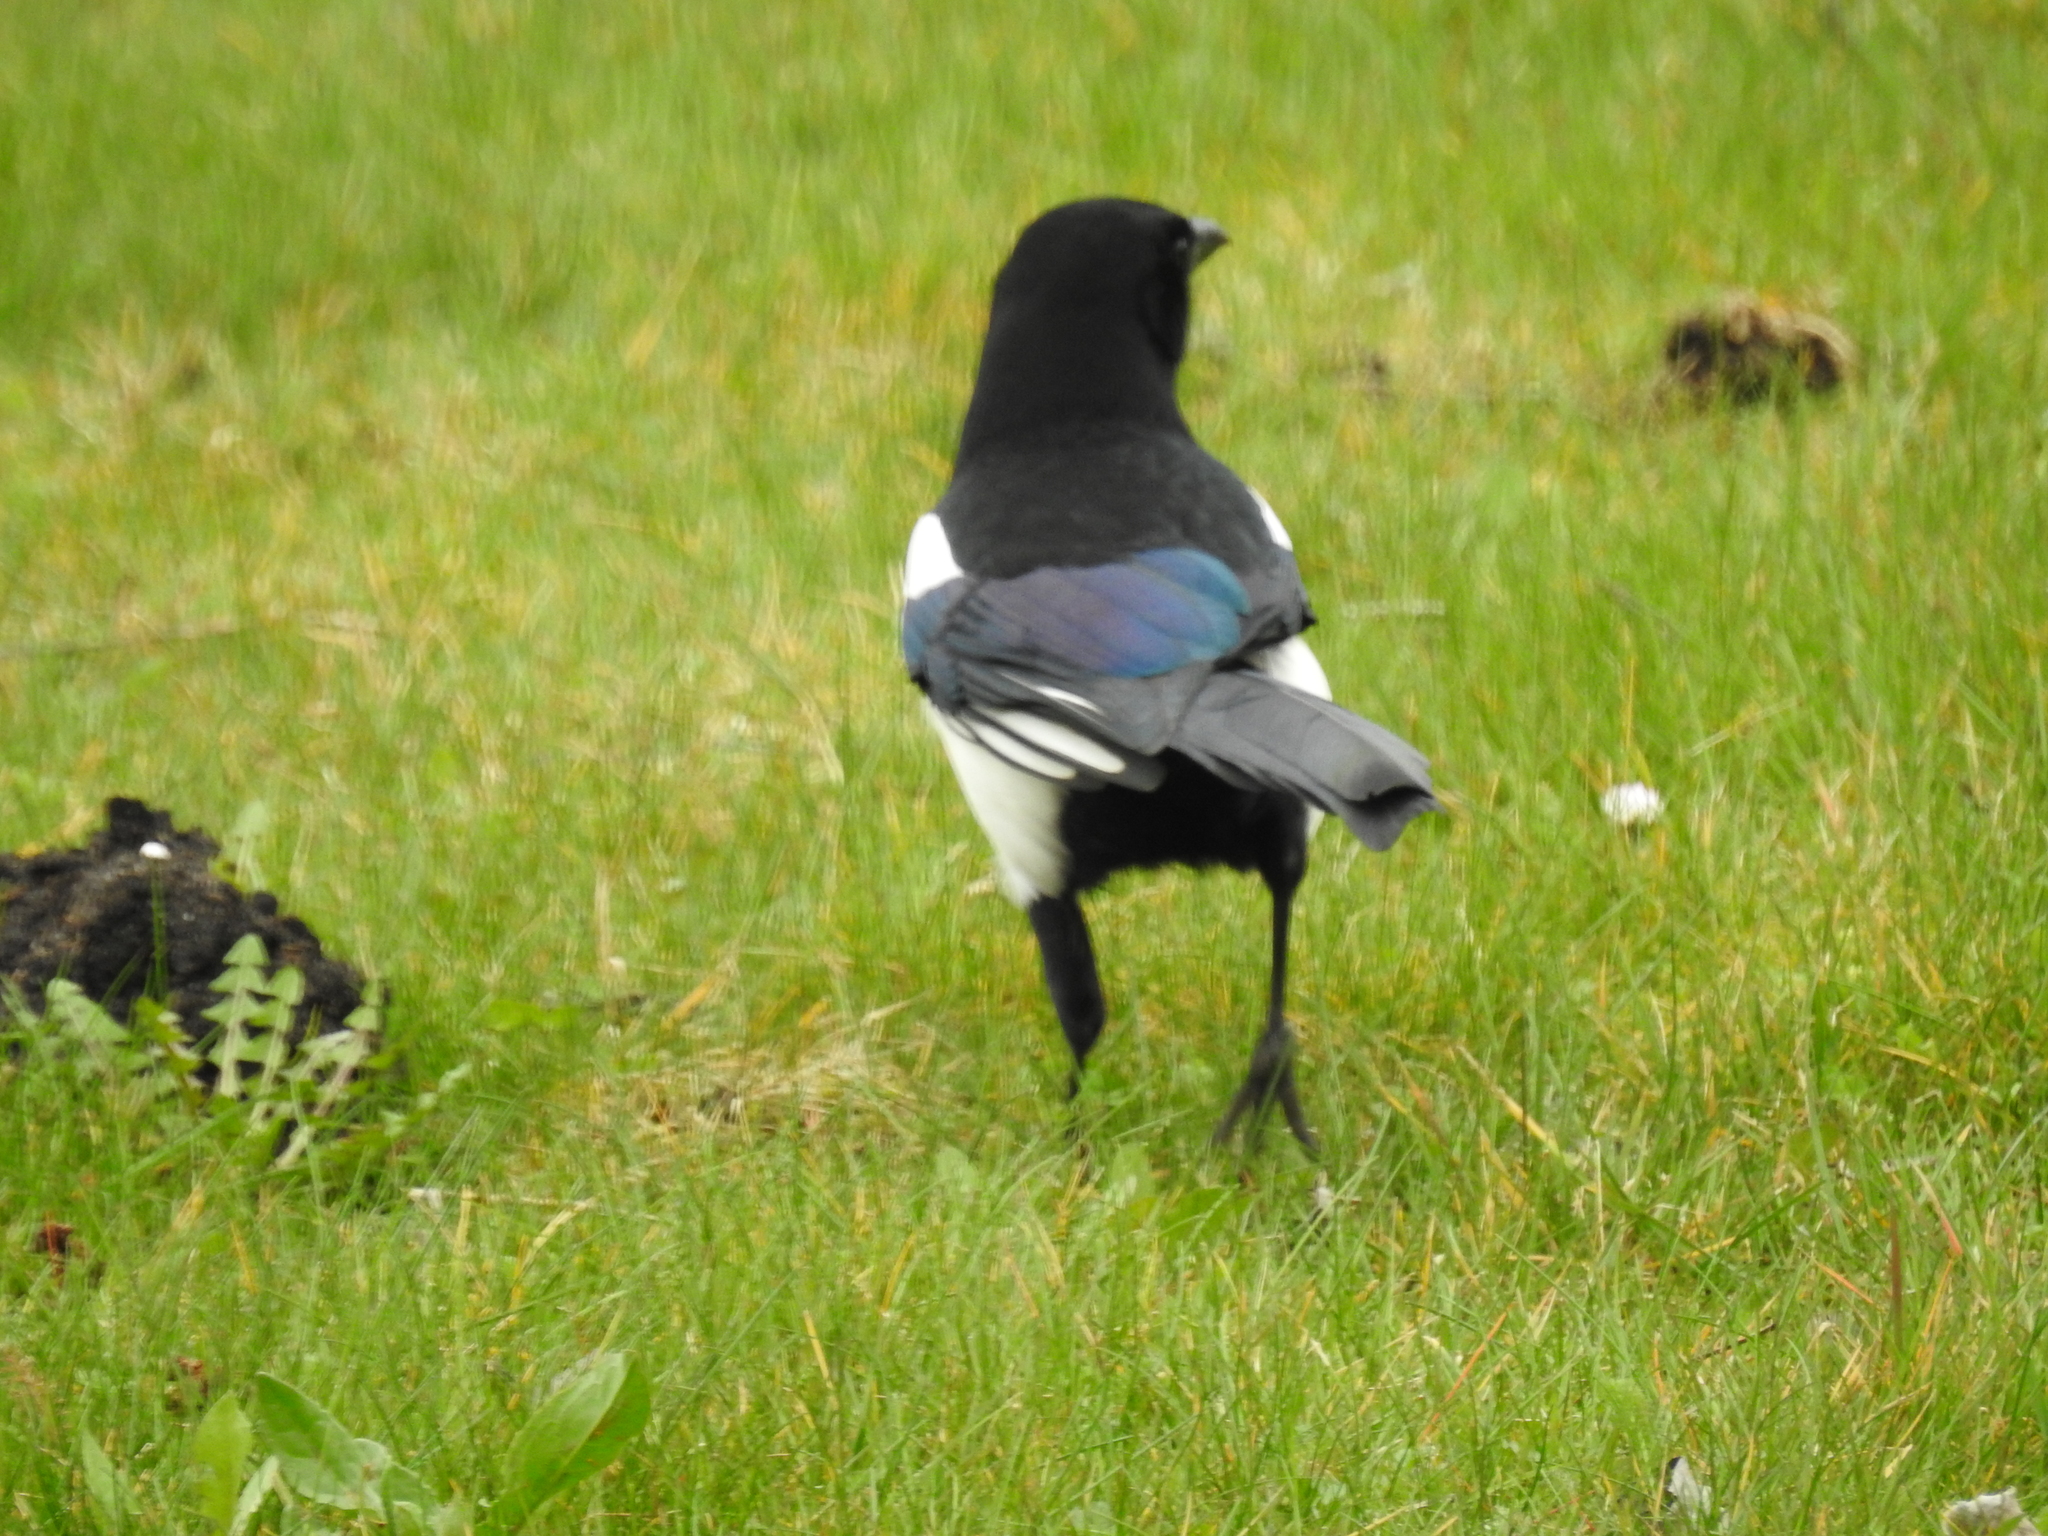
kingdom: Animalia
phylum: Chordata
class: Aves
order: Passeriformes
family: Corvidae
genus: Pica
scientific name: Pica pica
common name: Eurasian magpie
